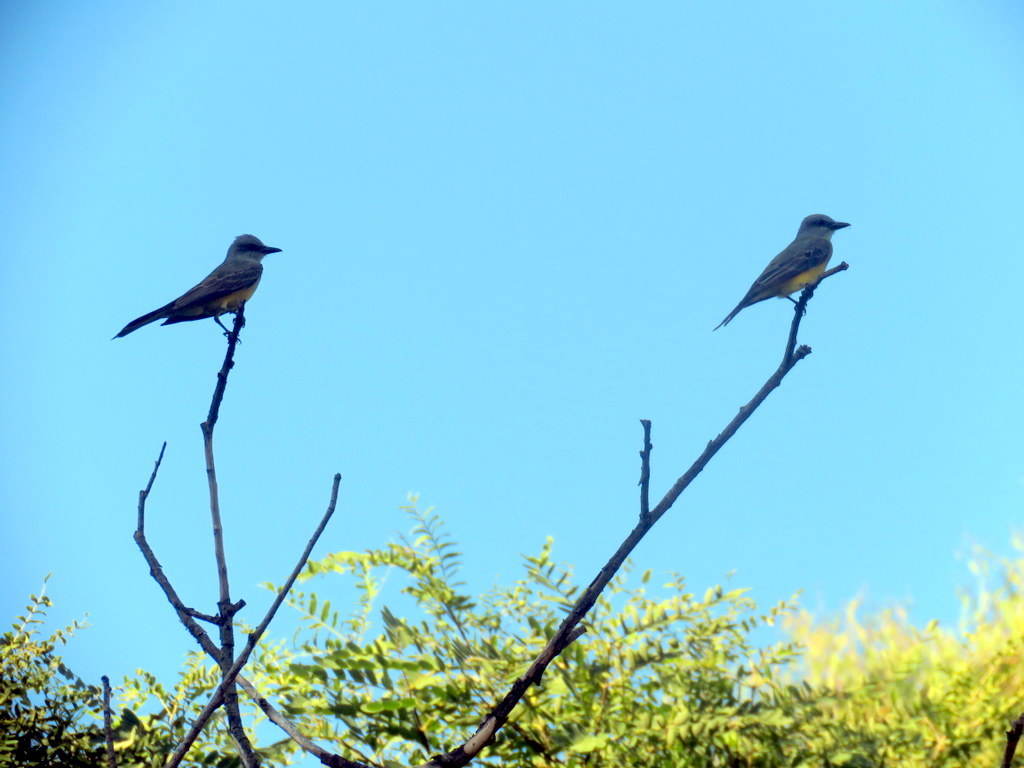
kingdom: Animalia
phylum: Chordata
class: Aves
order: Passeriformes
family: Tyrannidae
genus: Tyrannus
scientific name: Tyrannus melancholicus
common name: Tropical kingbird
